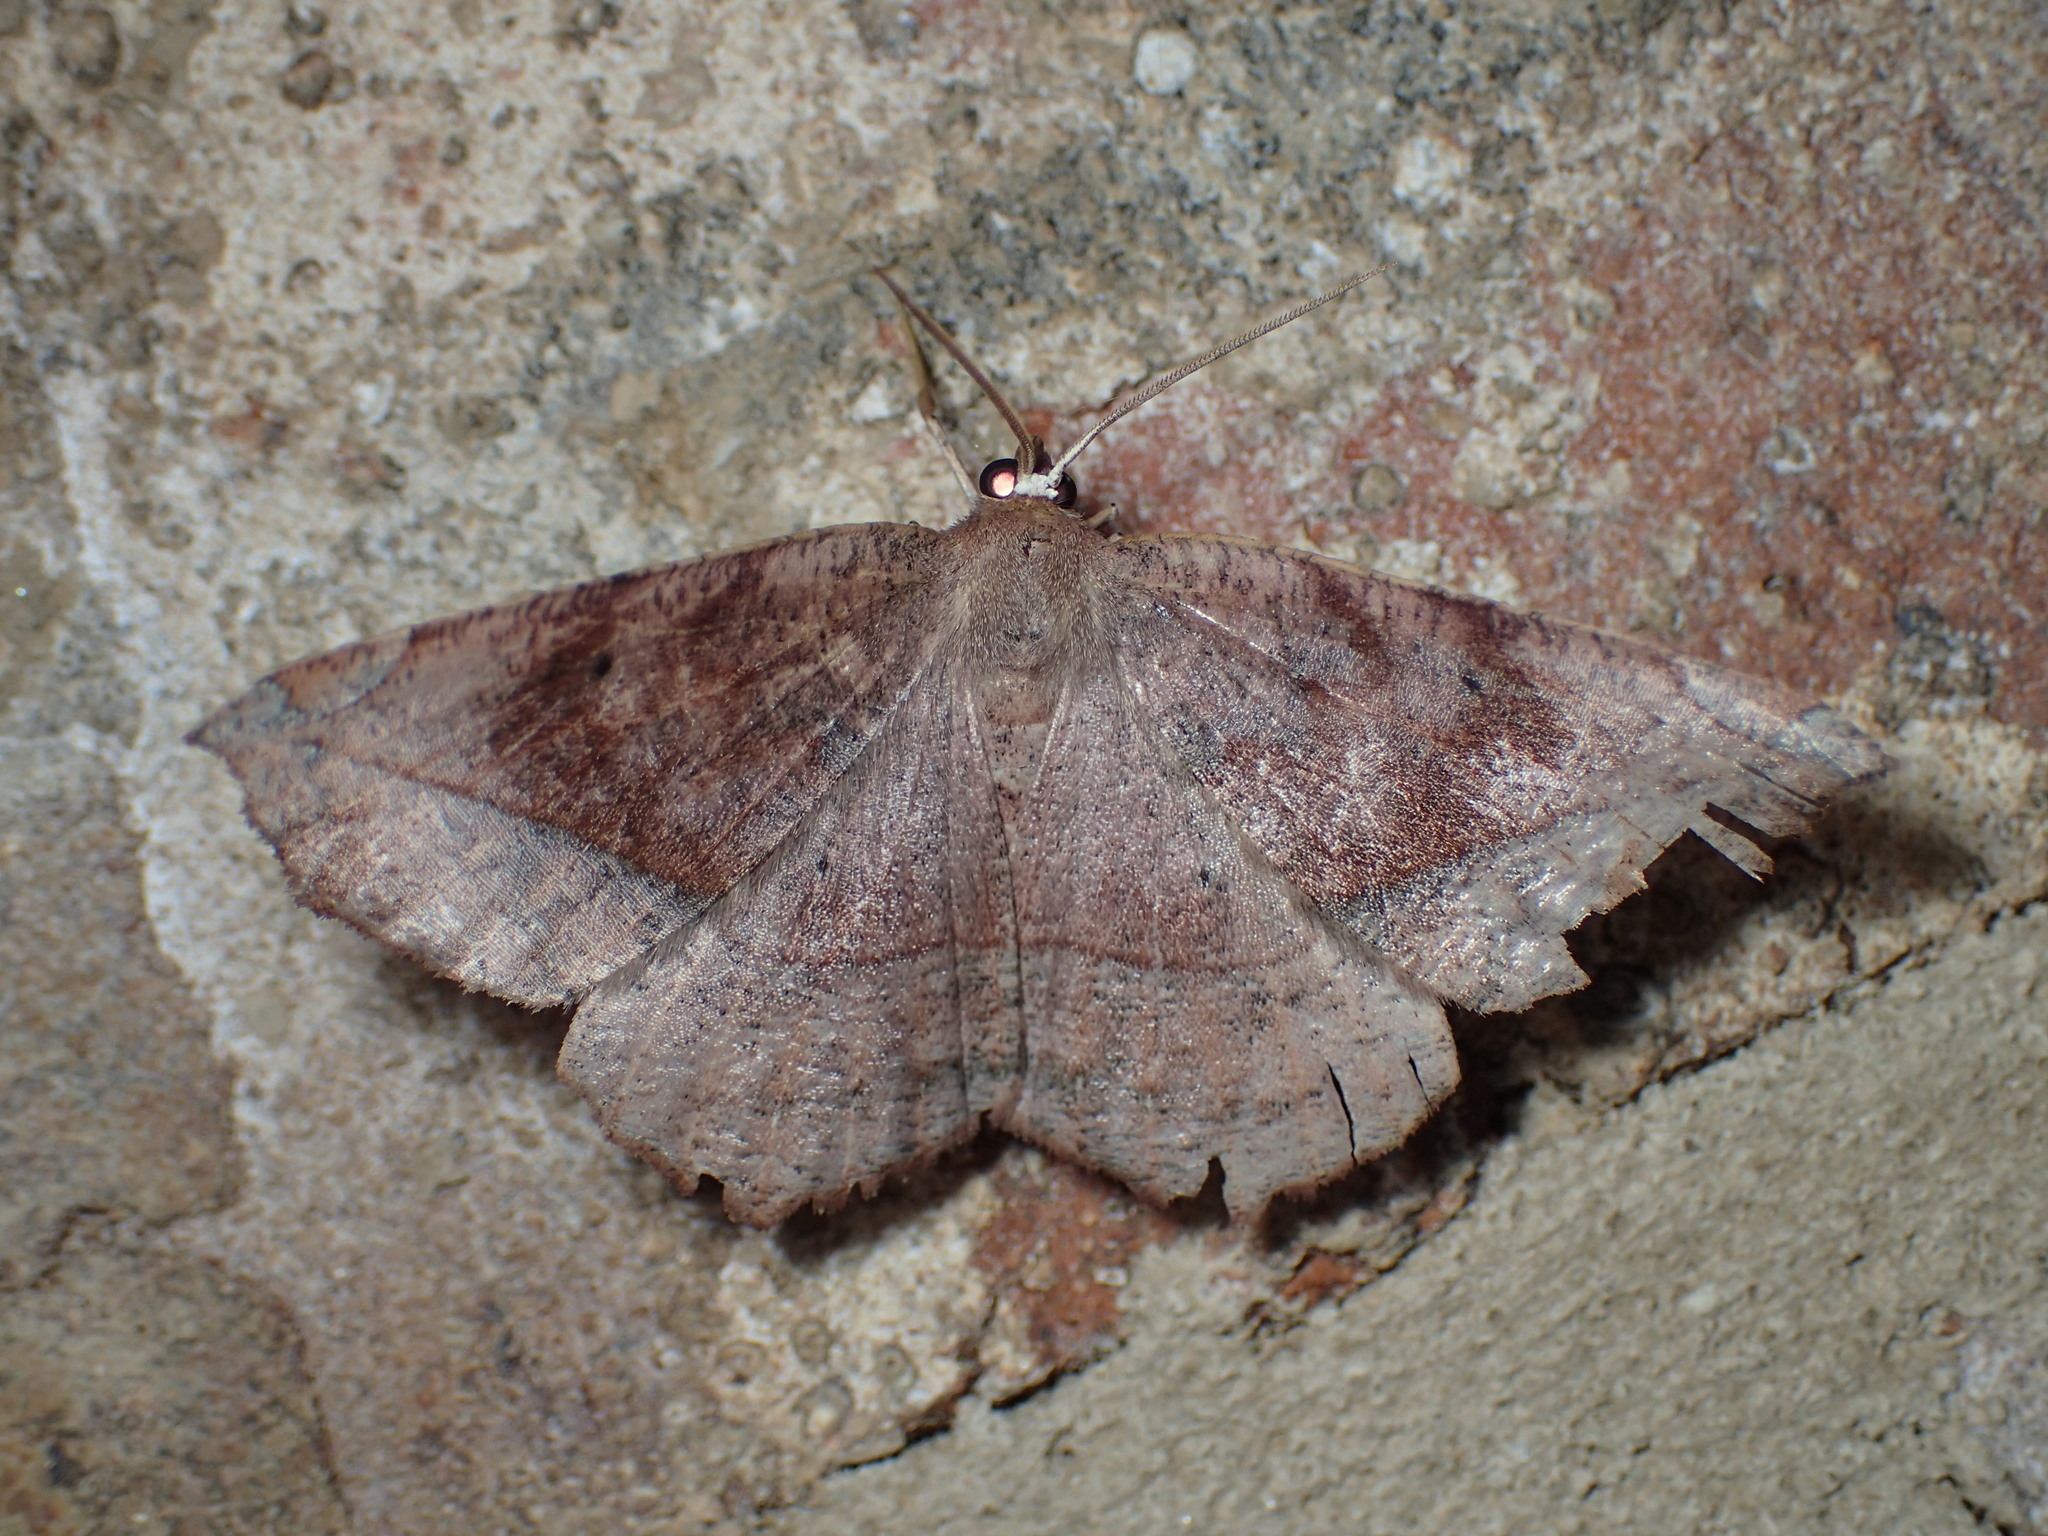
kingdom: Animalia
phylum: Arthropoda
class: Insecta
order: Lepidoptera
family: Geometridae
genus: Eutrapela
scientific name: Eutrapela clemataria
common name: Curved-toothed geometer
